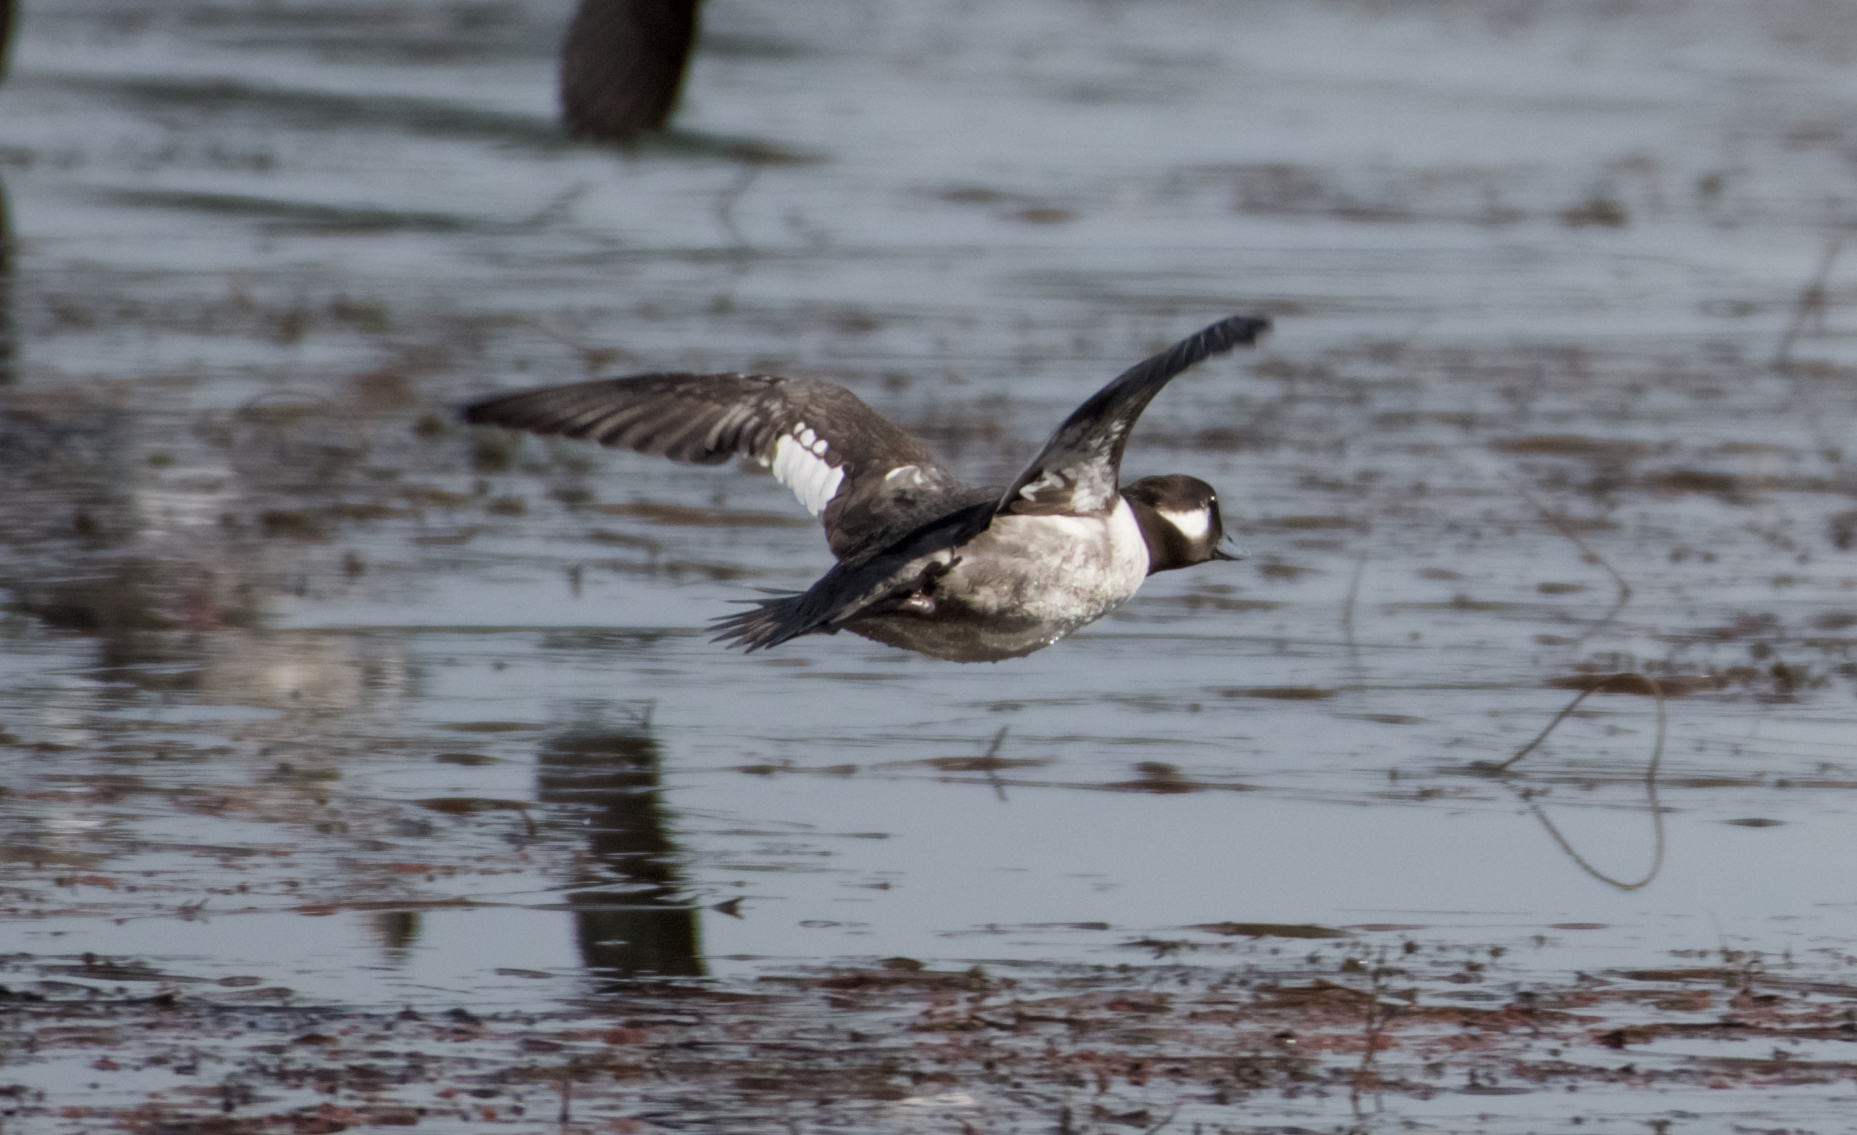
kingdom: Animalia
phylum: Chordata
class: Aves
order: Anseriformes
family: Anatidae
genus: Bucephala
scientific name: Bucephala albeola
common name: Bufflehead
